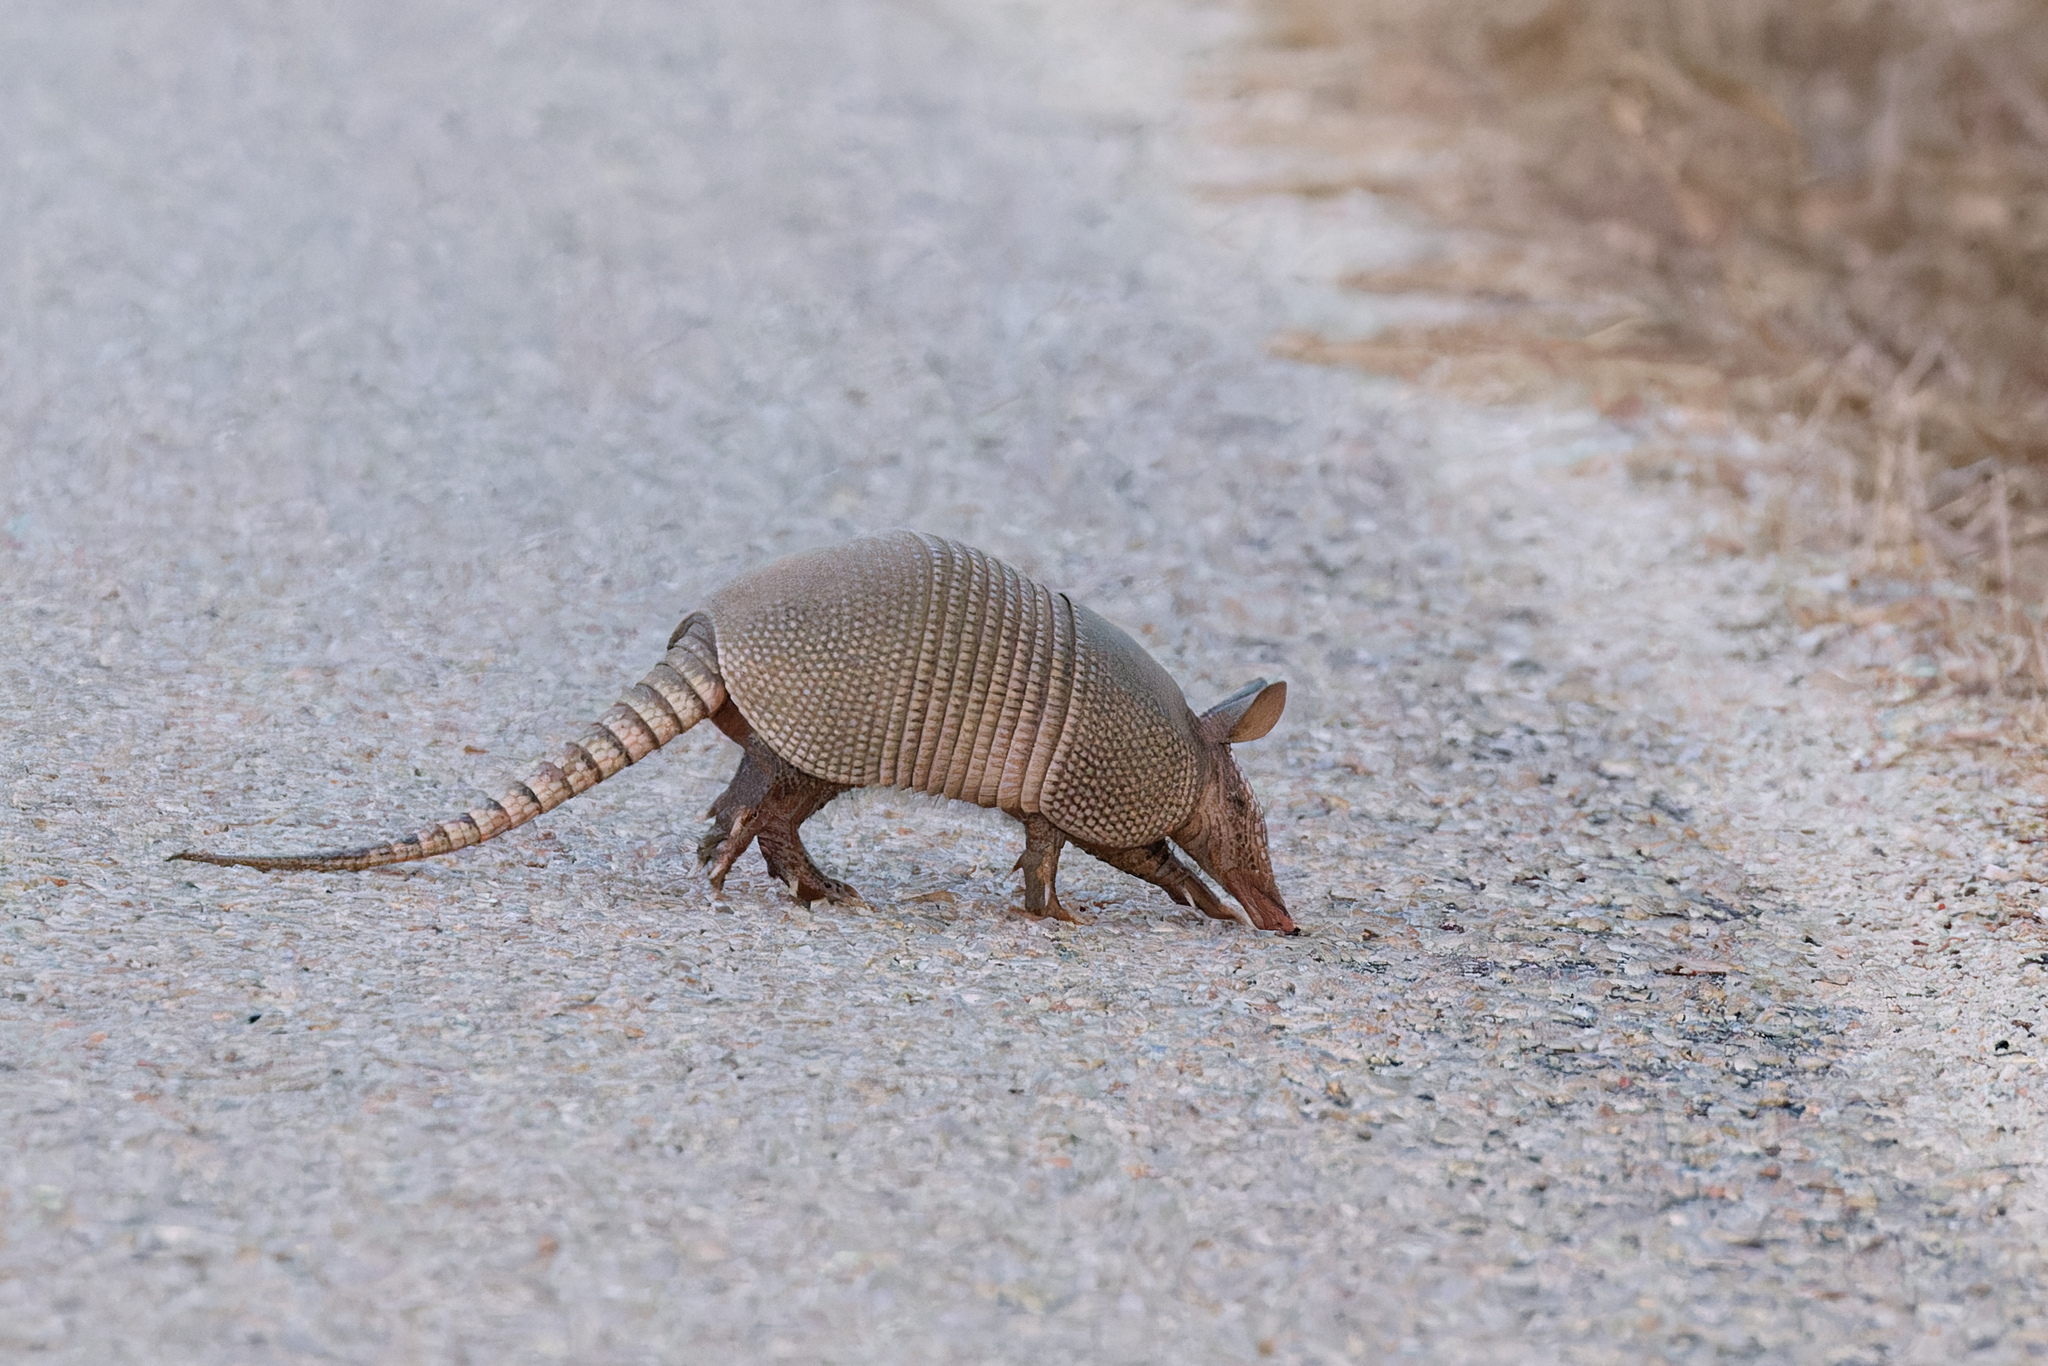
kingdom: Animalia
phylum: Chordata
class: Mammalia
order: Cingulata
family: Dasypodidae
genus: Dasypus
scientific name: Dasypus novemcinctus
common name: Nine-banded armadillo
